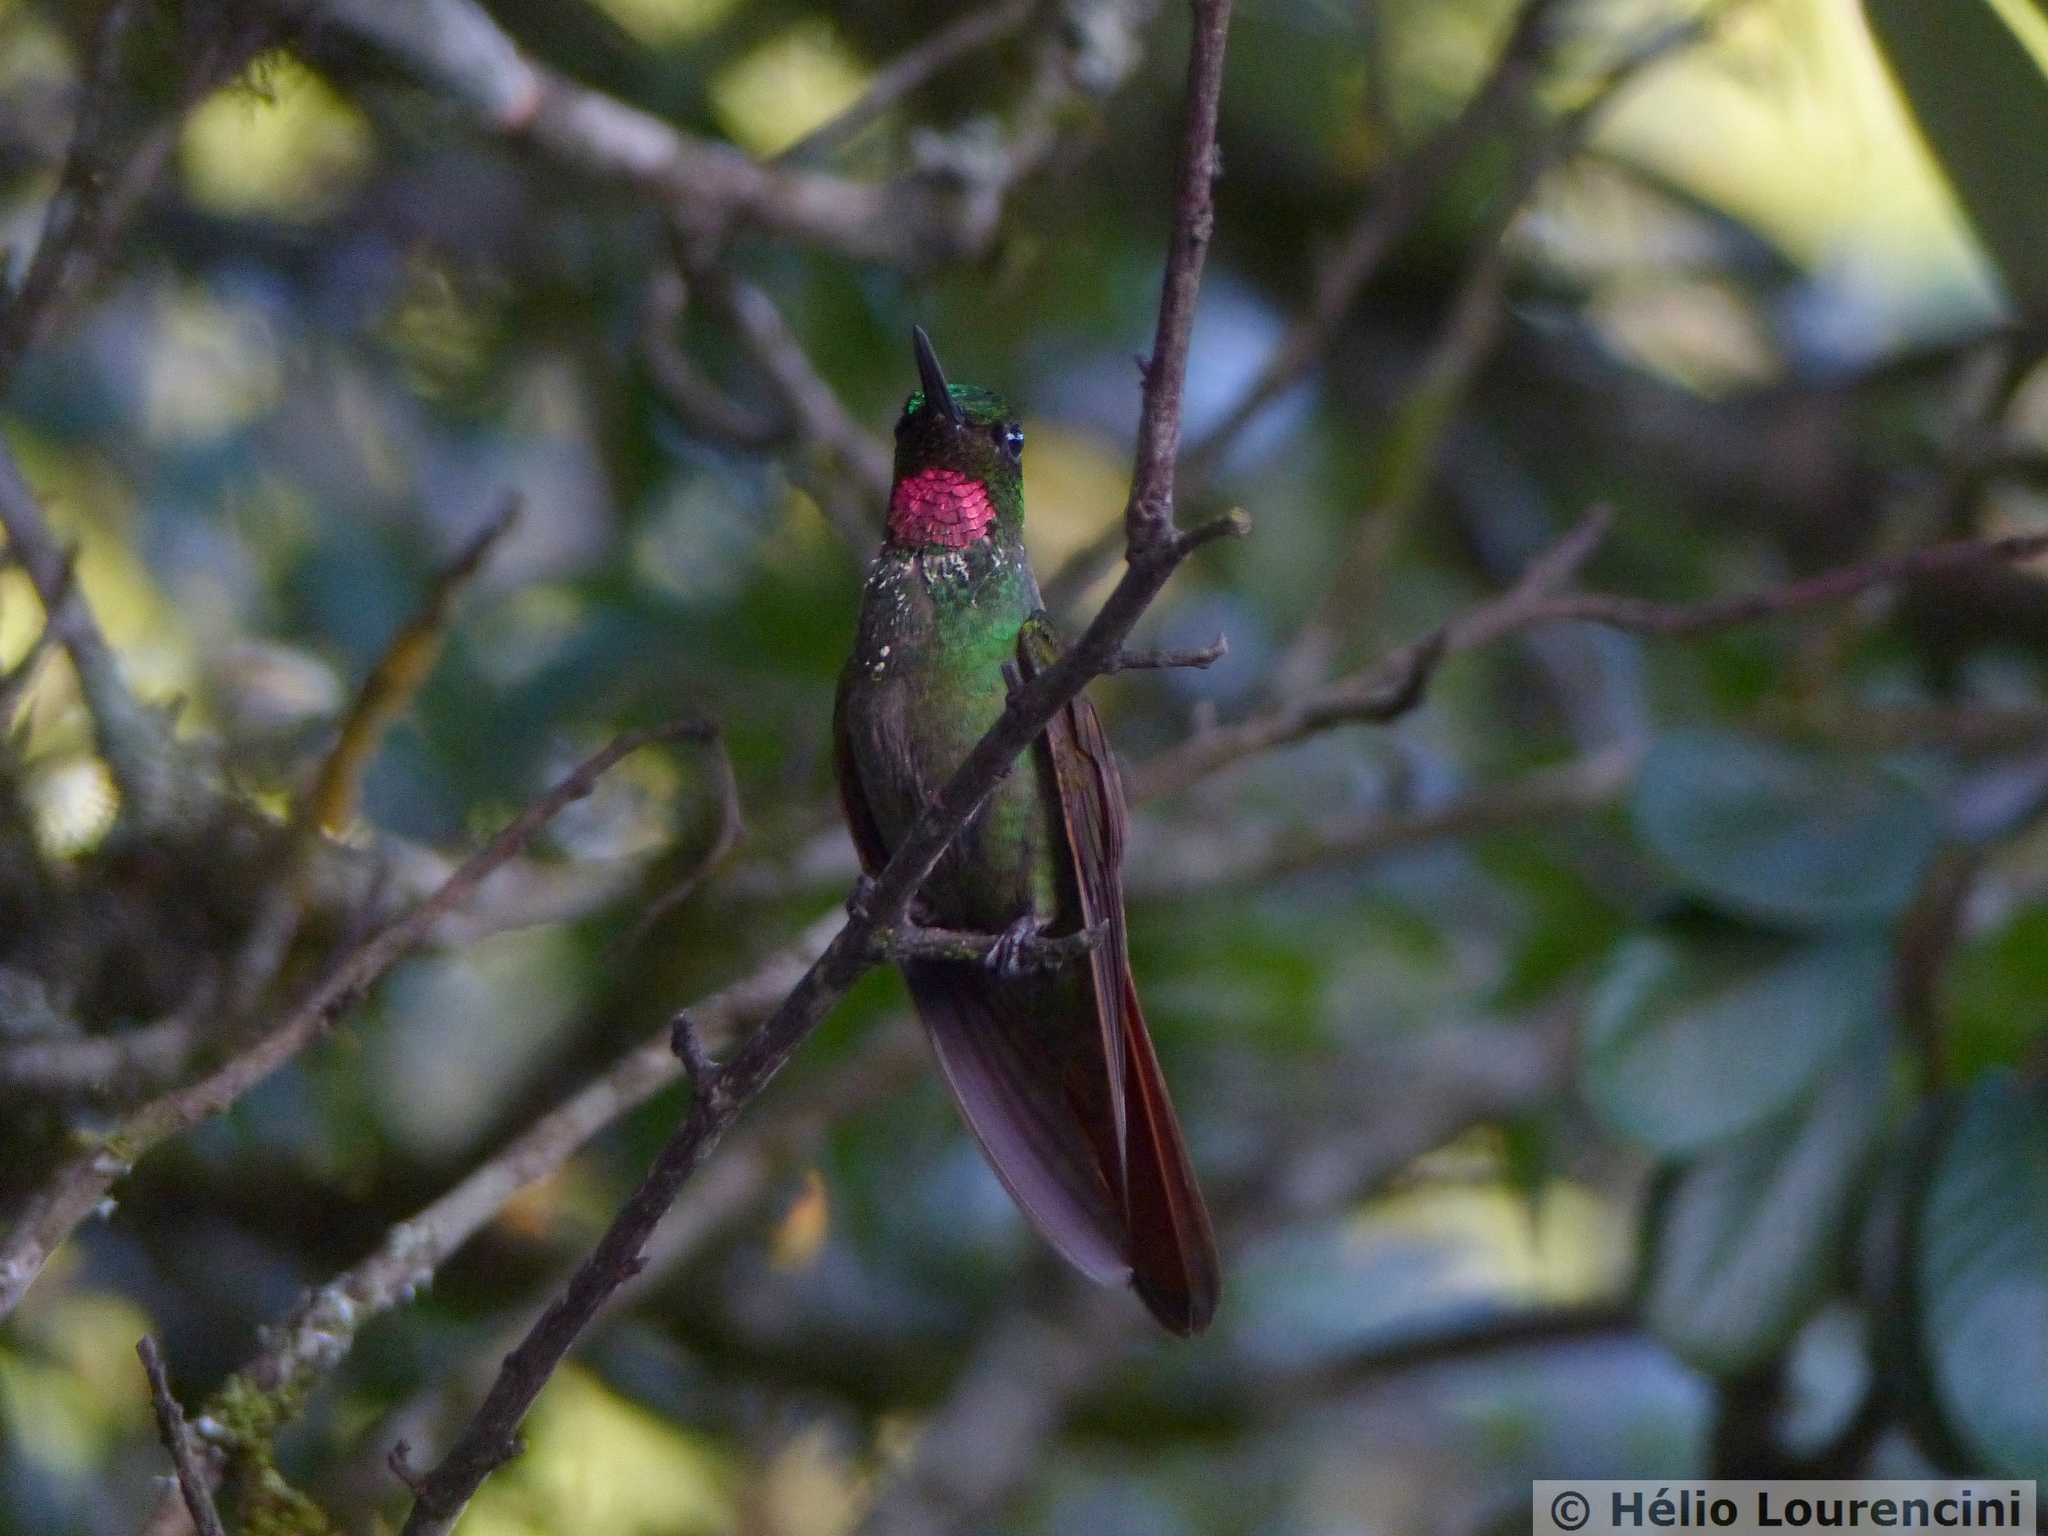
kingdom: Animalia
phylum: Chordata
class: Aves
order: Apodiformes
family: Trochilidae
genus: Clytolaema
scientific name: Clytolaema rubricauda
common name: Brazilian ruby
